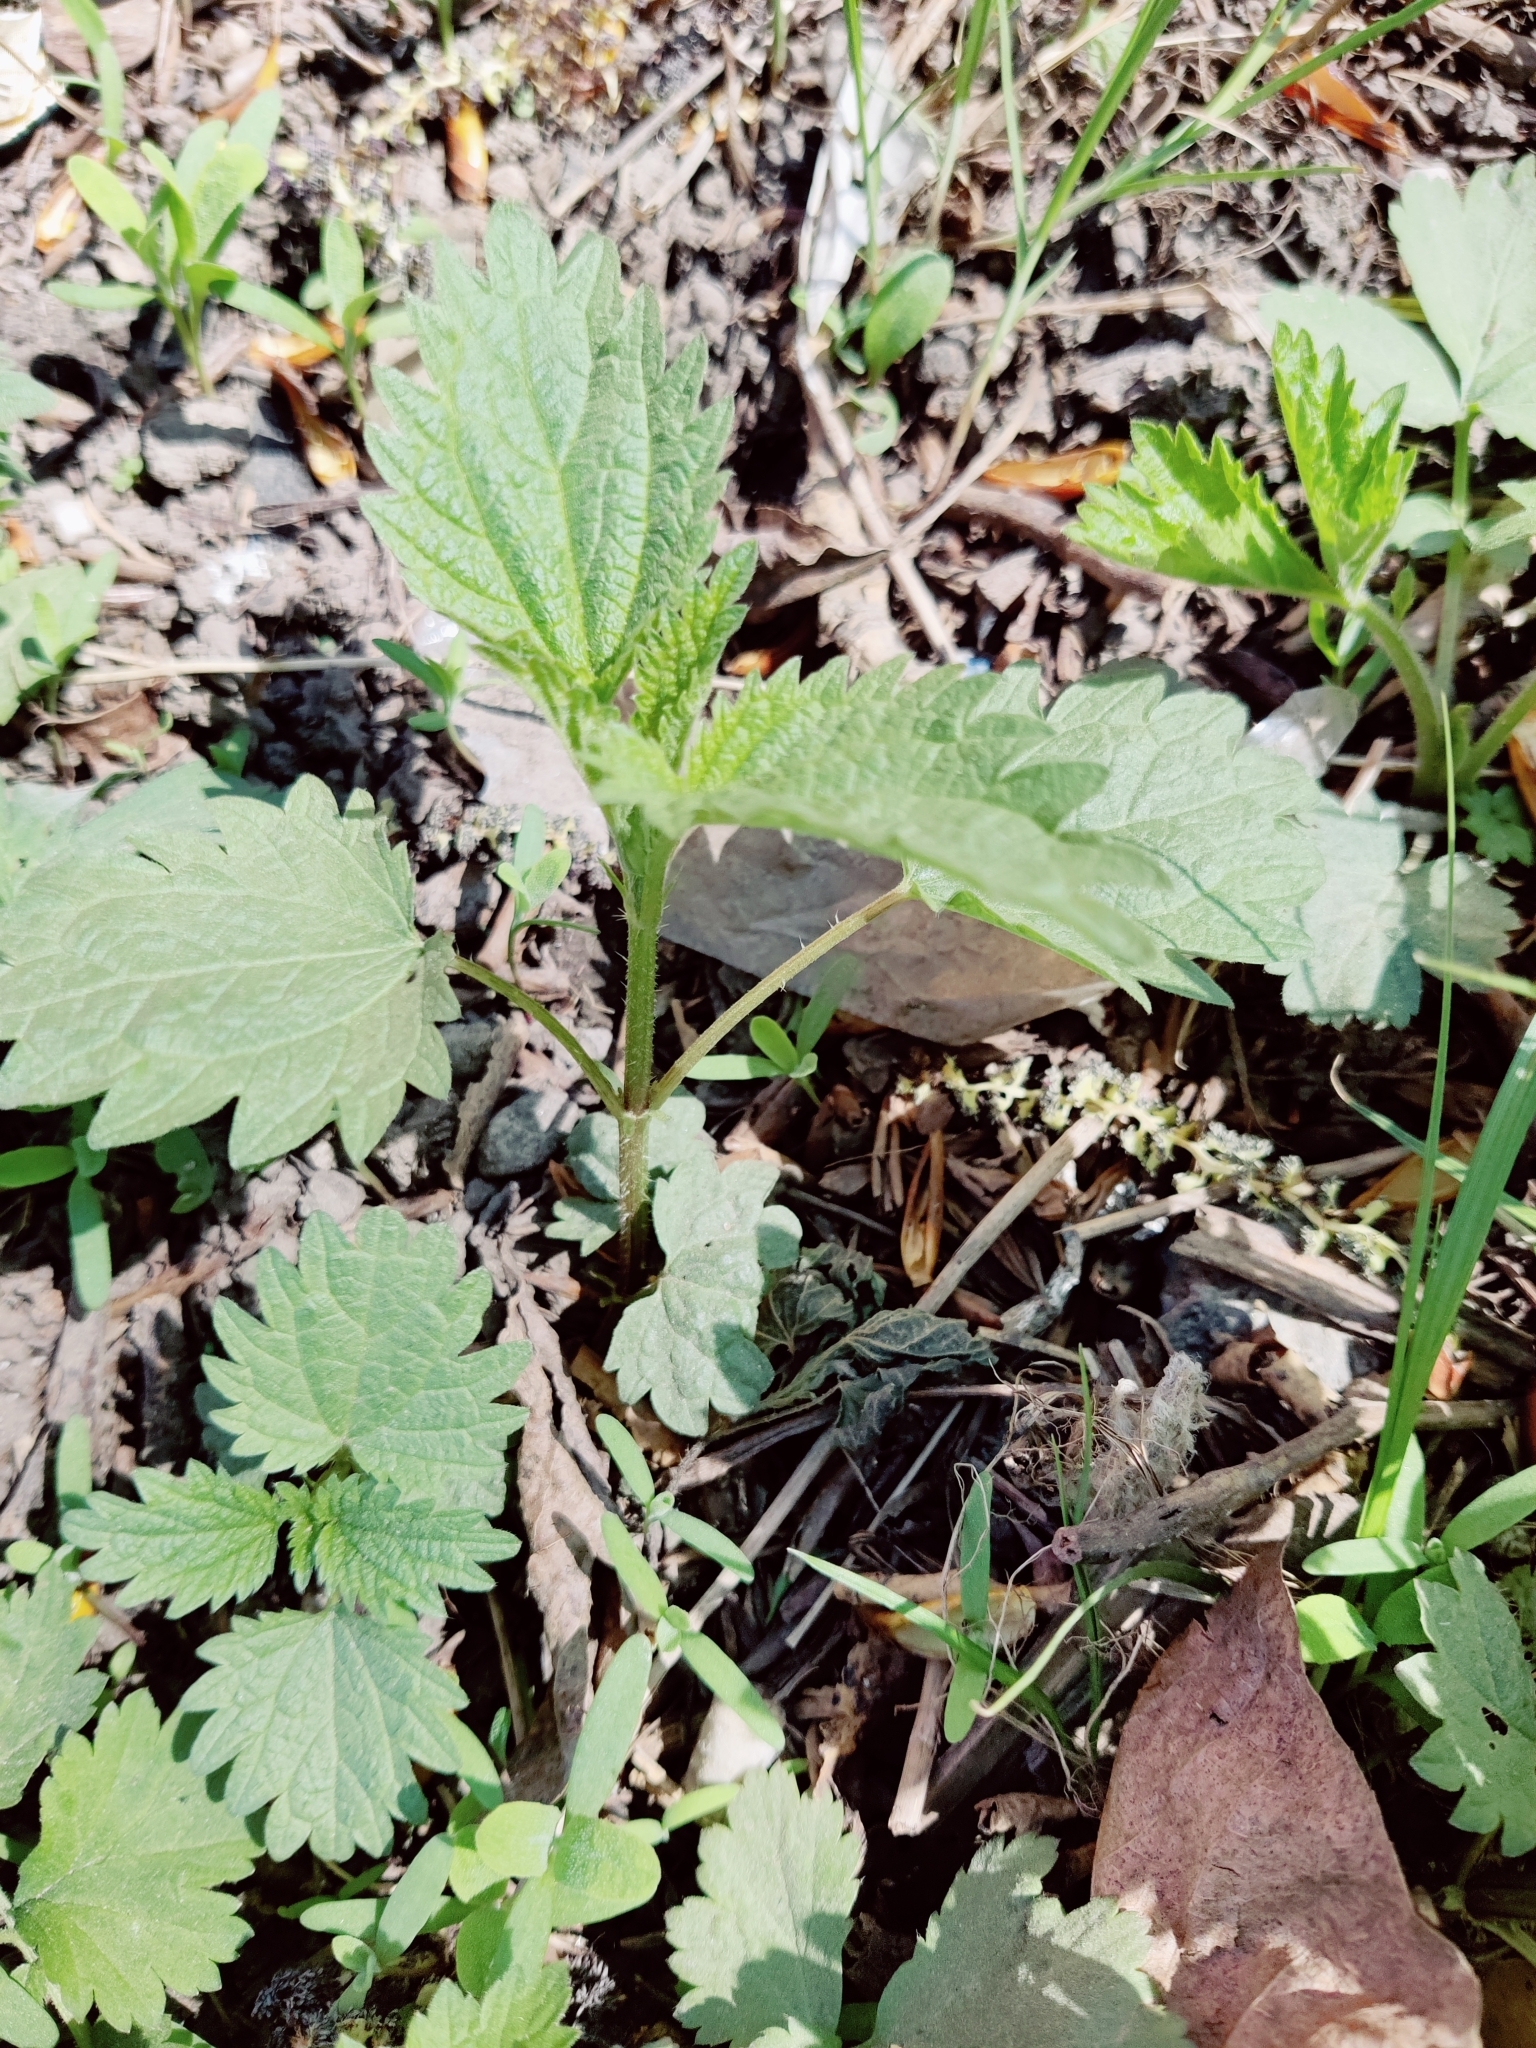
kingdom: Plantae
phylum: Tracheophyta
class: Magnoliopsida
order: Rosales
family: Urticaceae
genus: Urtica
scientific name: Urtica dioica
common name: Common nettle
